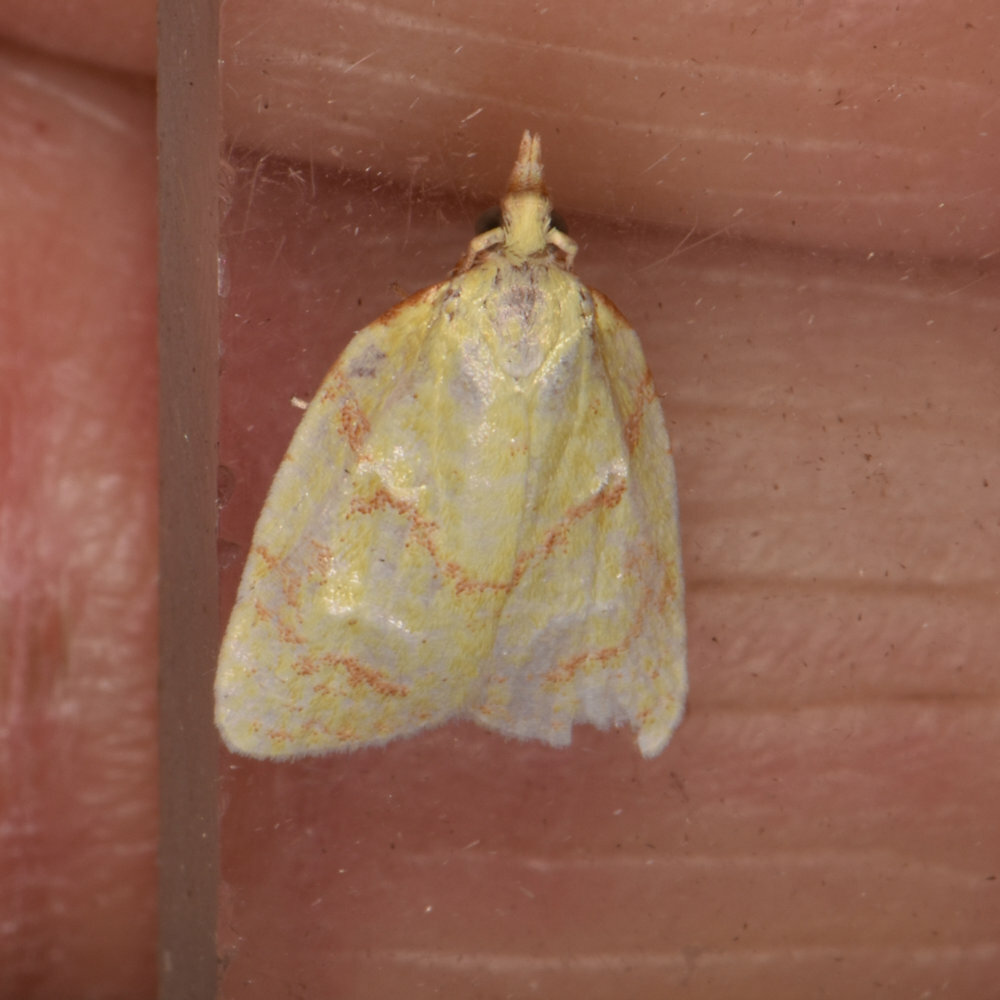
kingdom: Animalia
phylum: Arthropoda
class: Insecta
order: Lepidoptera
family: Tortricidae
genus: Cenopis
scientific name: Cenopis pettitana
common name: Maple-basswood leafroller moth
